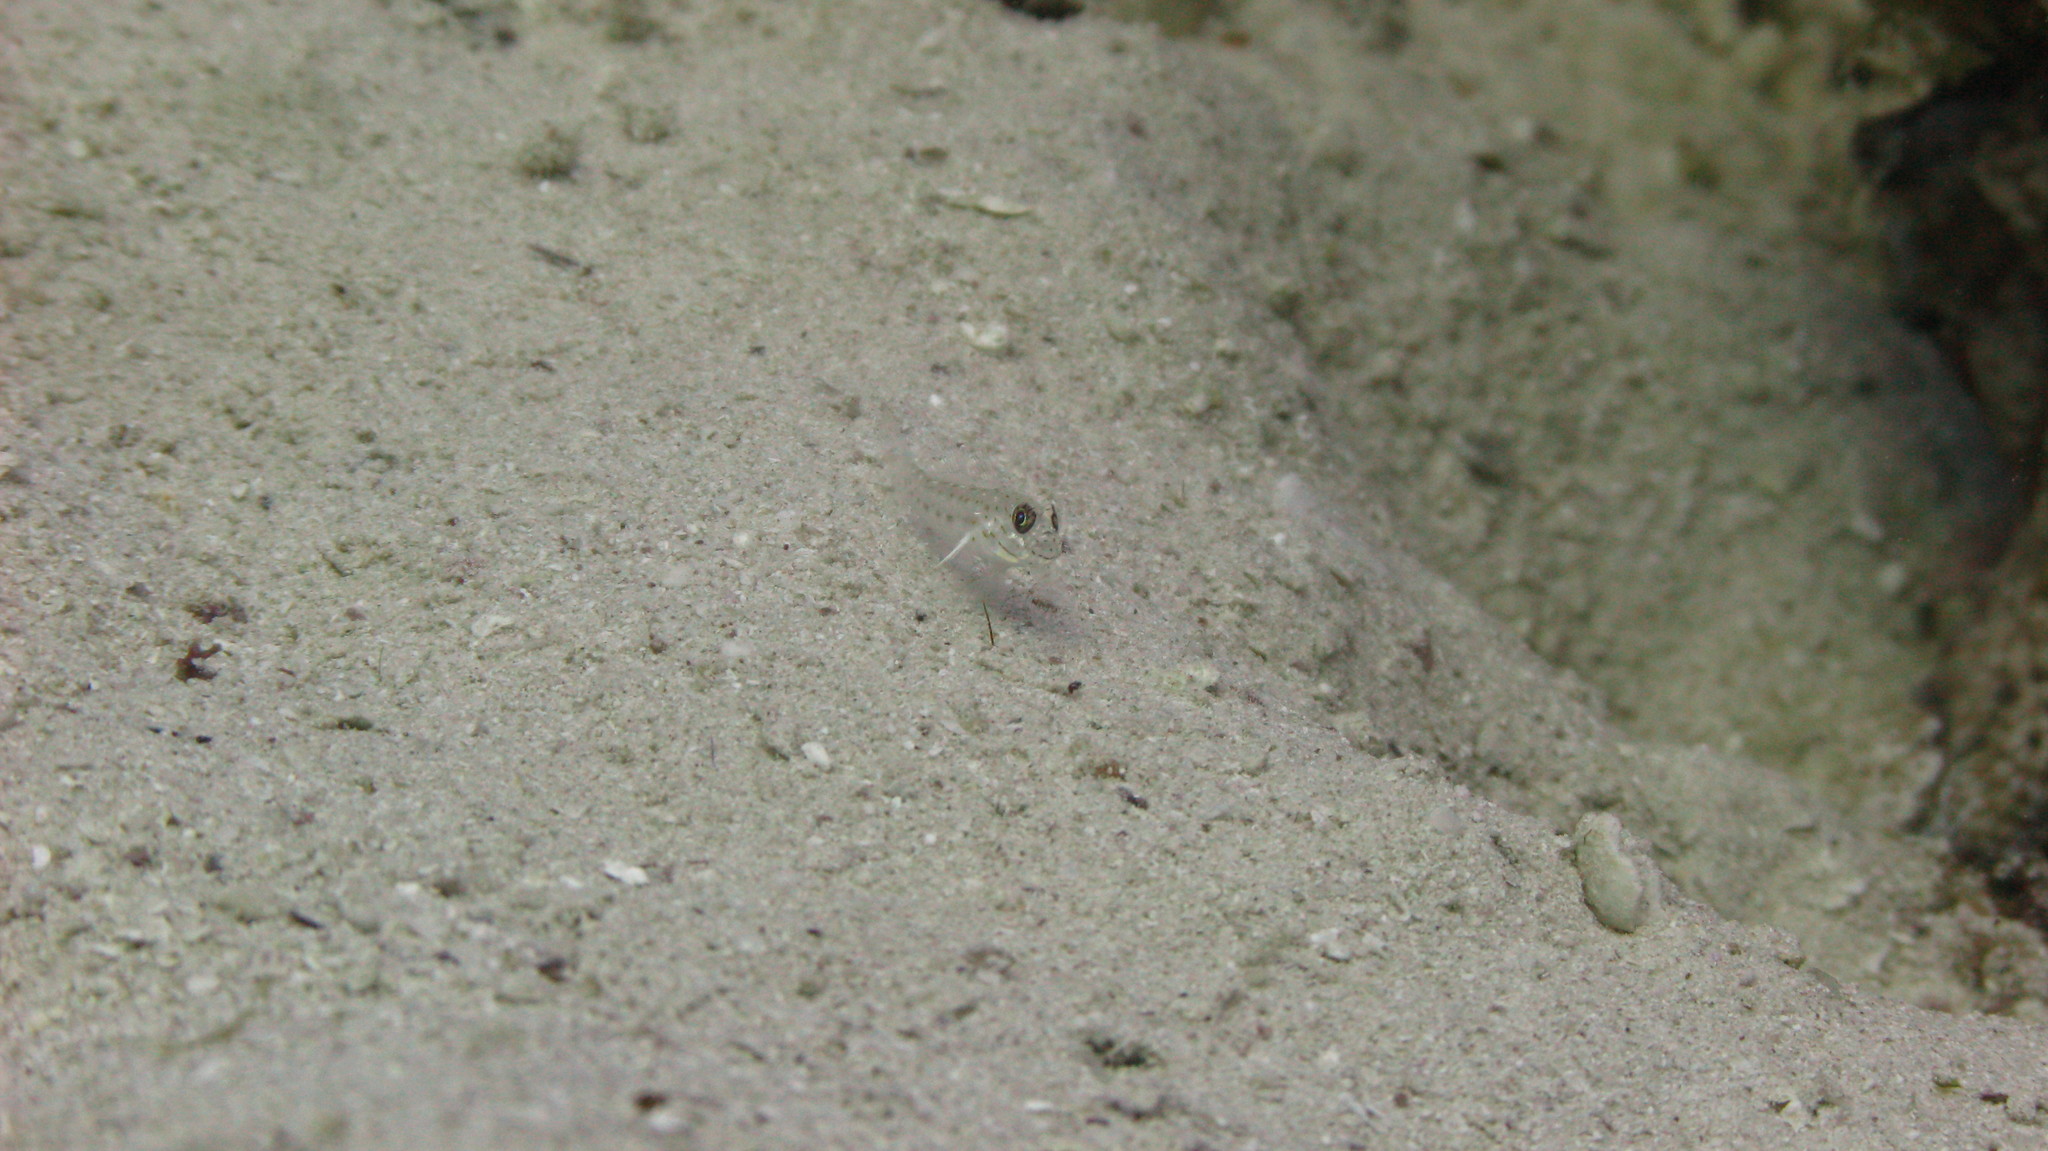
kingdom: Animalia
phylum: Chordata
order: Perciformes
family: Gobiidae
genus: Ctenogobiops
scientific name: Ctenogobiops crocineus
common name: Silverspot shrimpgoby
